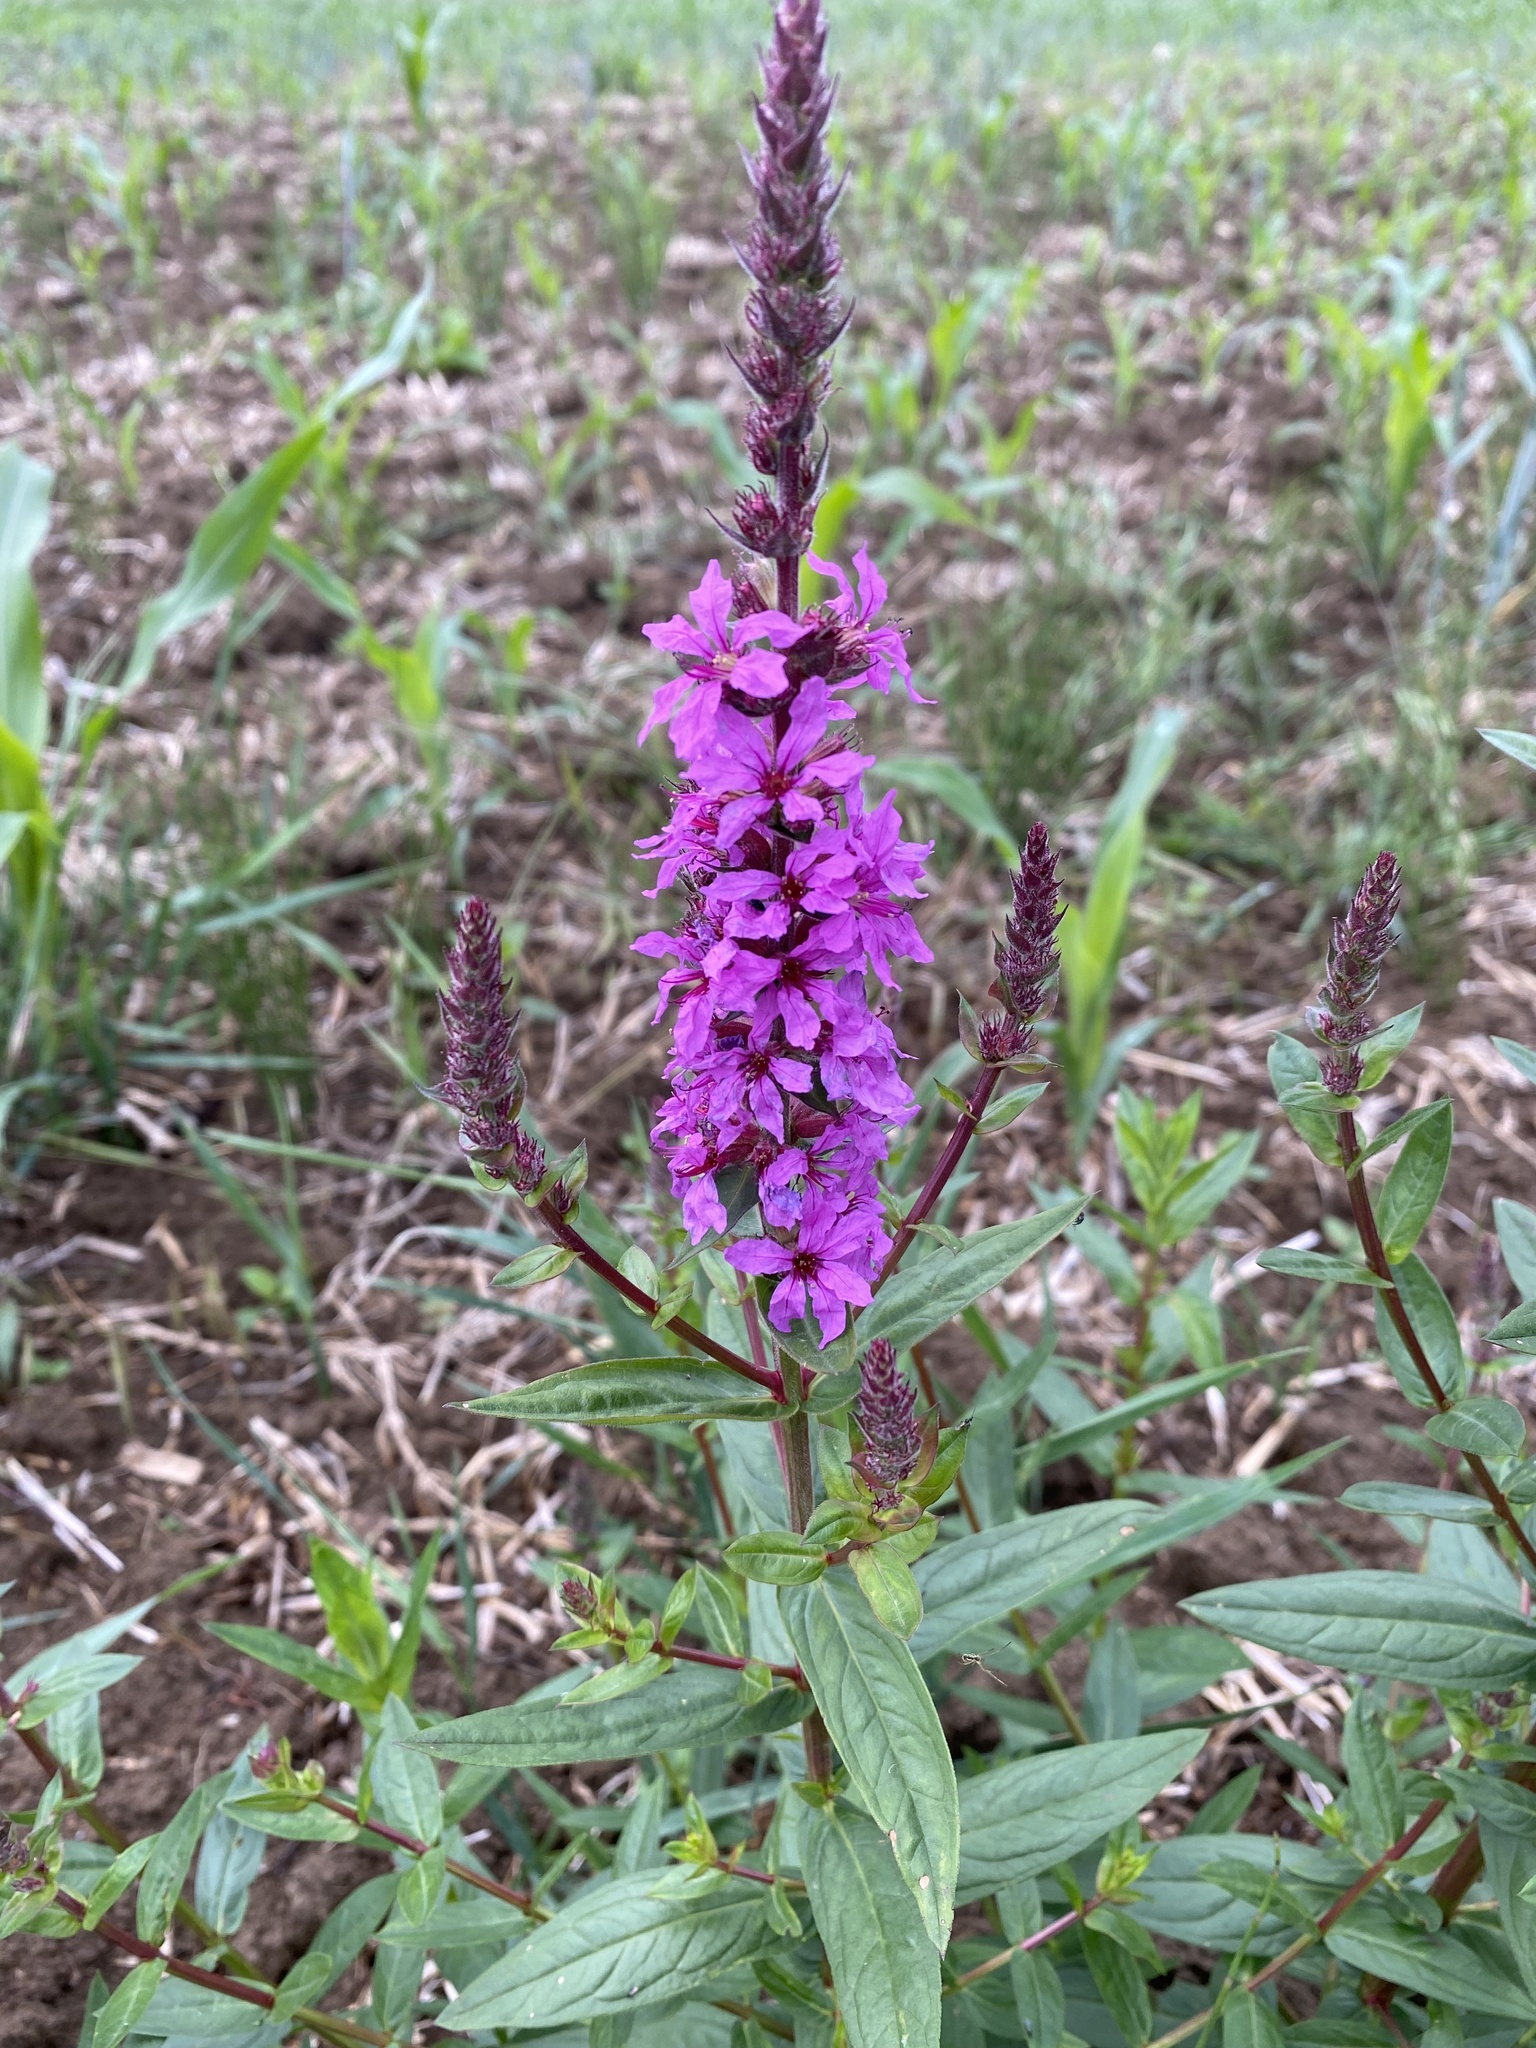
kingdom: Plantae
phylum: Tracheophyta
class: Magnoliopsida
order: Myrtales
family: Lythraceae
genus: Lythrum
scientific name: Lythrum salicaria
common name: Purple loosestrife
